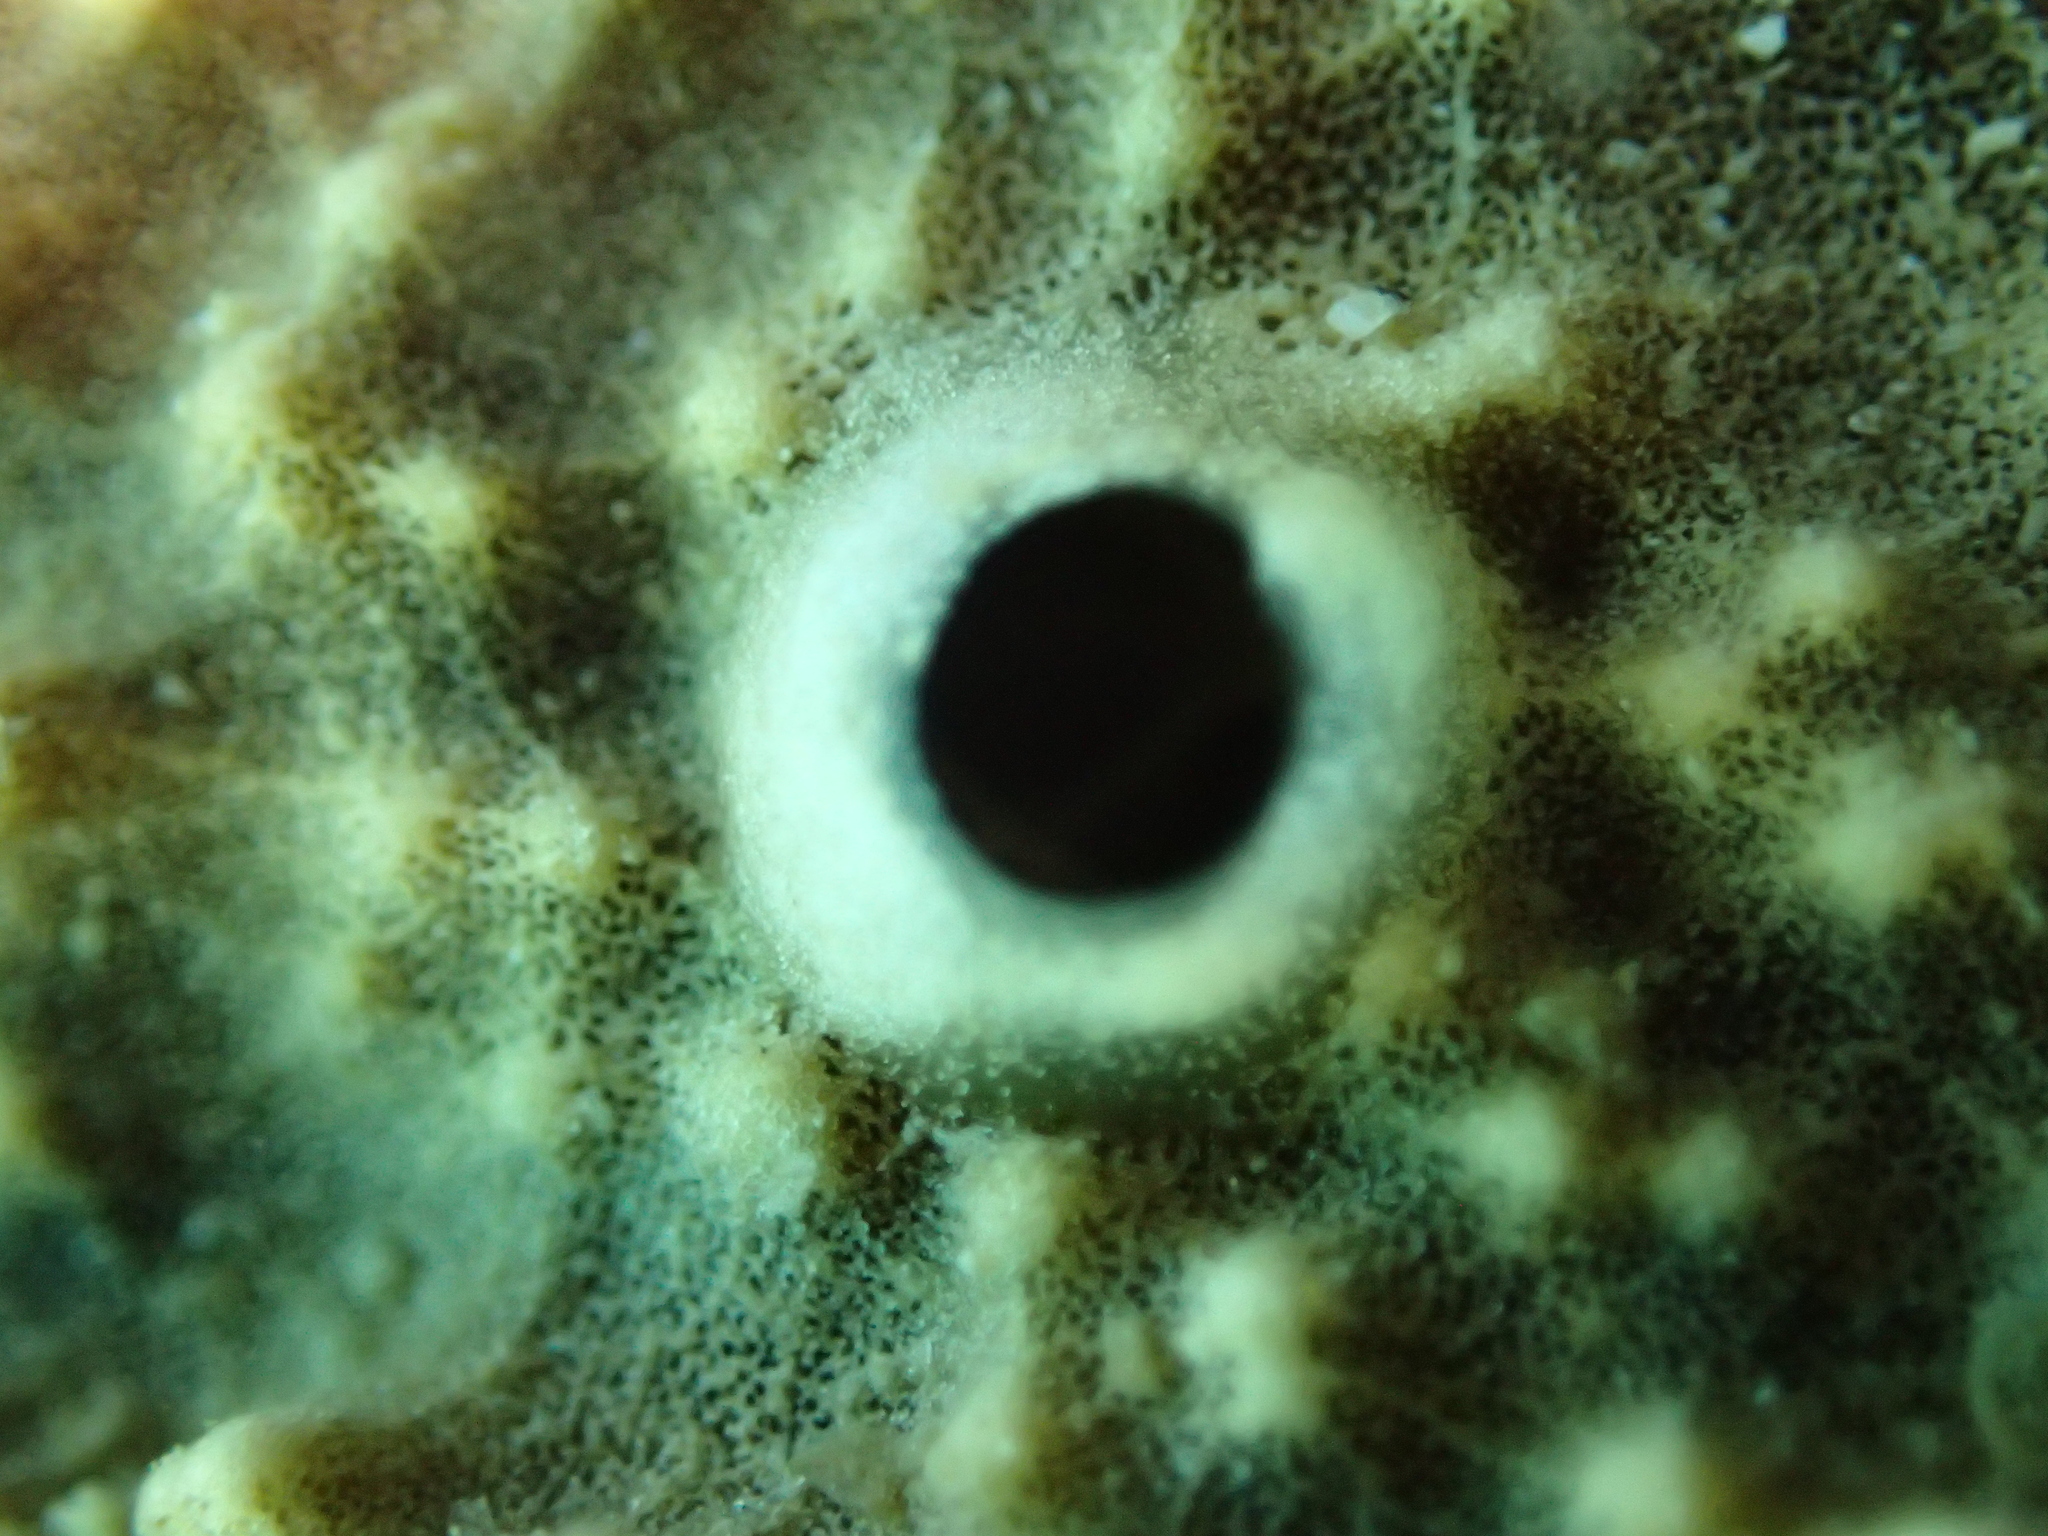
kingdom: Animalia
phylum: Porifera
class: Demospongiae
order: Dictyoceratida
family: Irciniidae
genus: Ircinia
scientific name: Ircinia variabilis
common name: Variable loggerhead sponge
